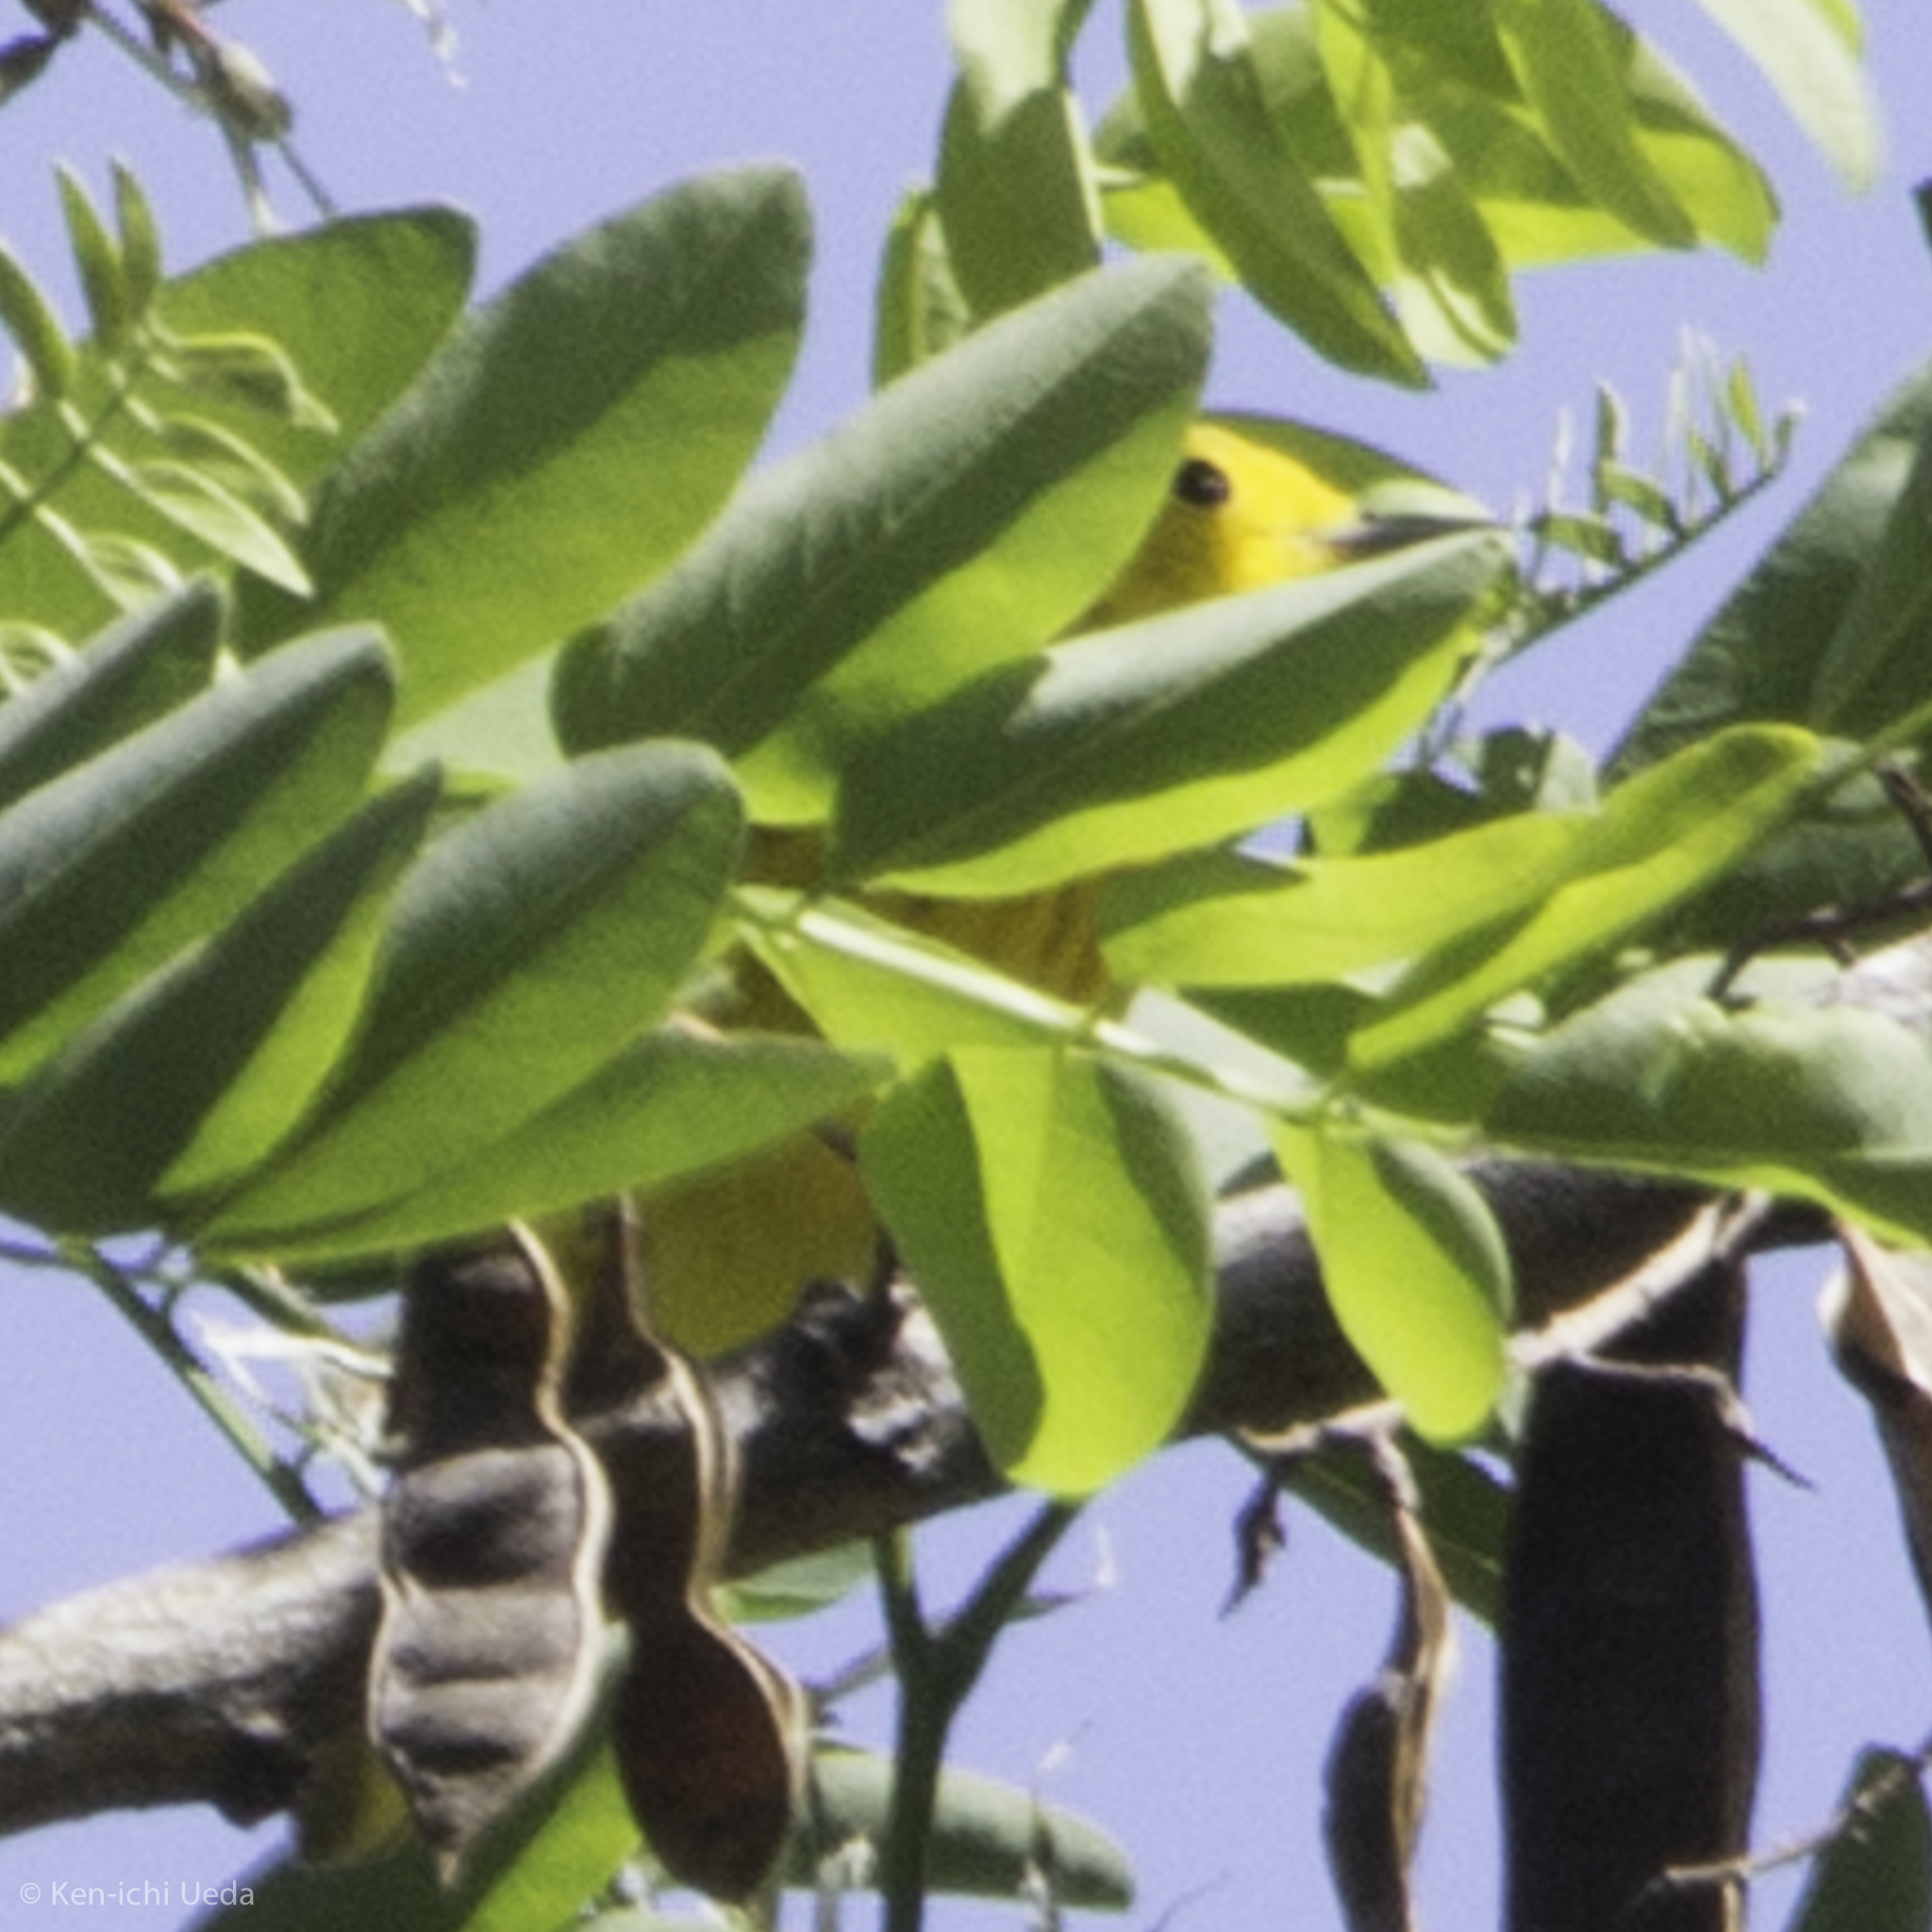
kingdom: Animalia
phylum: Chordata
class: Aves
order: Passeriformes
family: Parulidae
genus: Setophaga
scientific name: Setophaga petechia
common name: Yellow warbler
